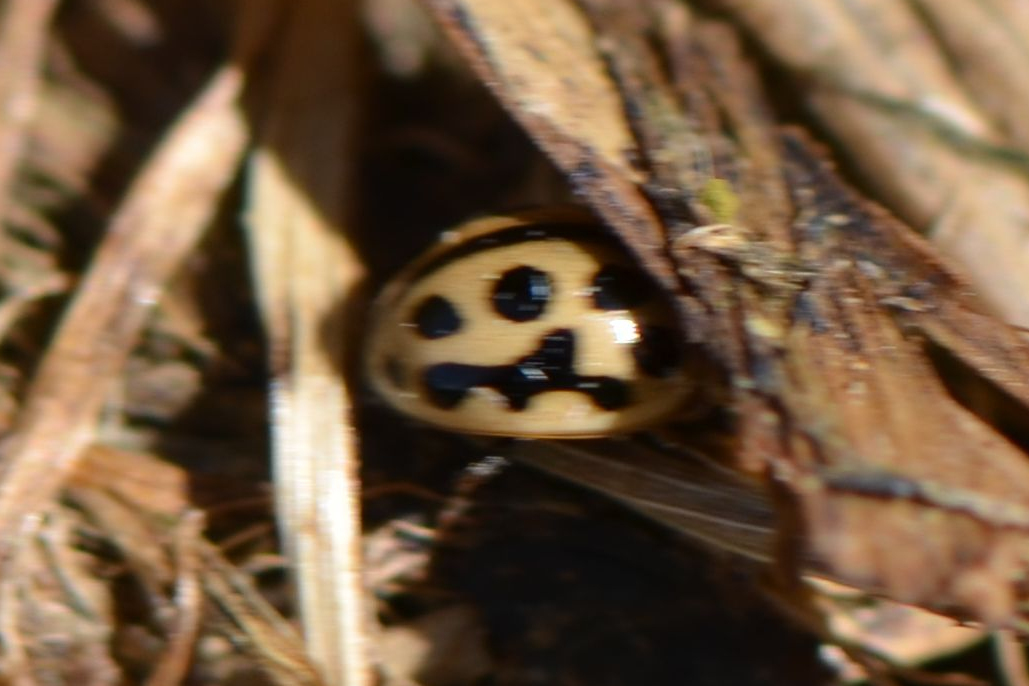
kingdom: Animalia
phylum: Arthropoda
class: Insecta
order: Coleoptera
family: Coccinellidae
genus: Tytthaspis
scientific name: Tytthaspis sedecimpunctata
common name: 16-spot ladybird
